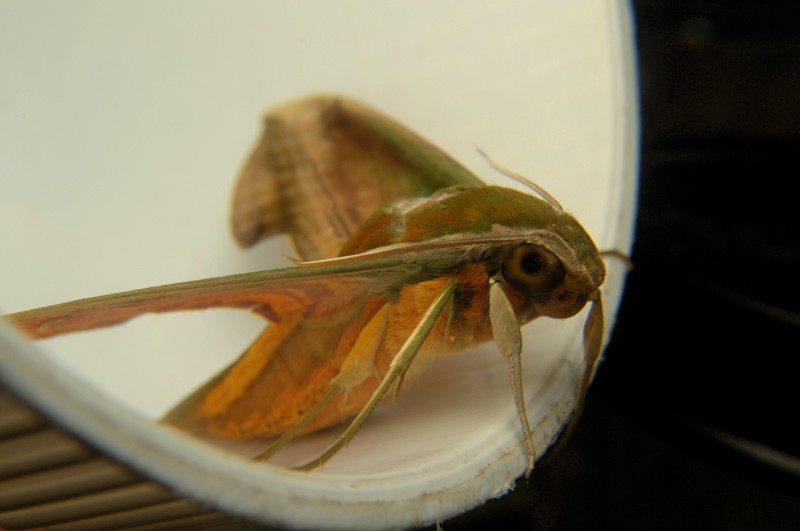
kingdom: Animalia
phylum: Arthropoda
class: Insecta
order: Lepidoptera
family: Sphingidae
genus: Theretra
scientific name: Theretra nessus
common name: Yam hawk moth
